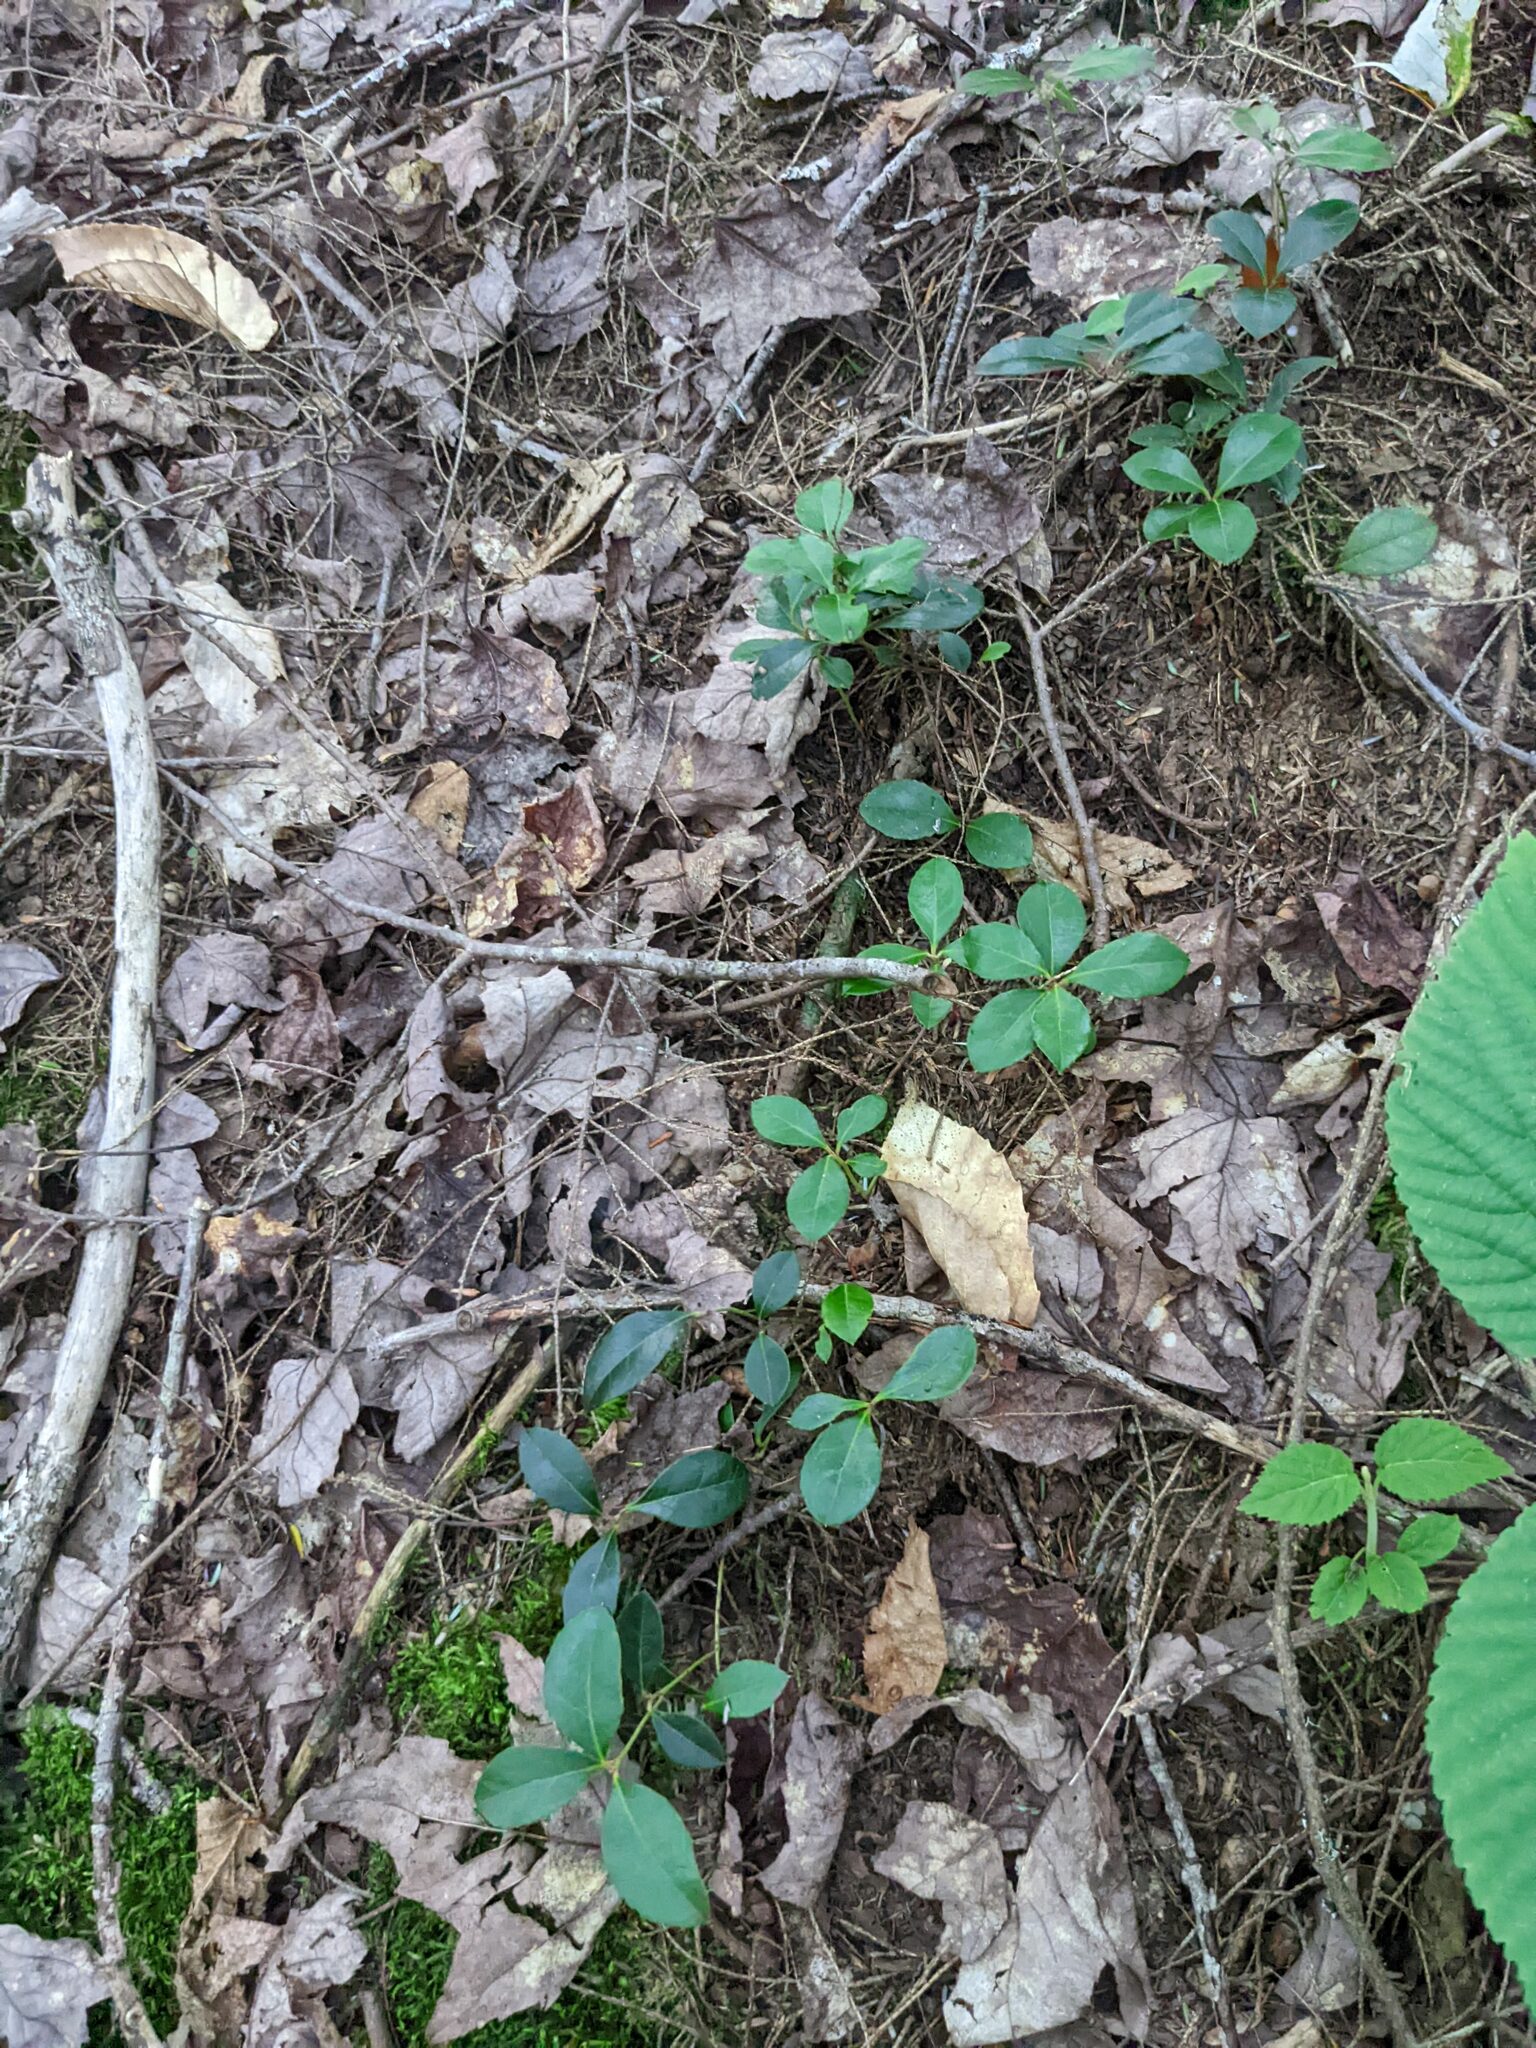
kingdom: Plantae
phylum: Tracheophyta
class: Magnoliopsida
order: Ericales
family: Ericaceae
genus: Gaultheria
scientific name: Gaultheria procumbens
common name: Checkerberry
